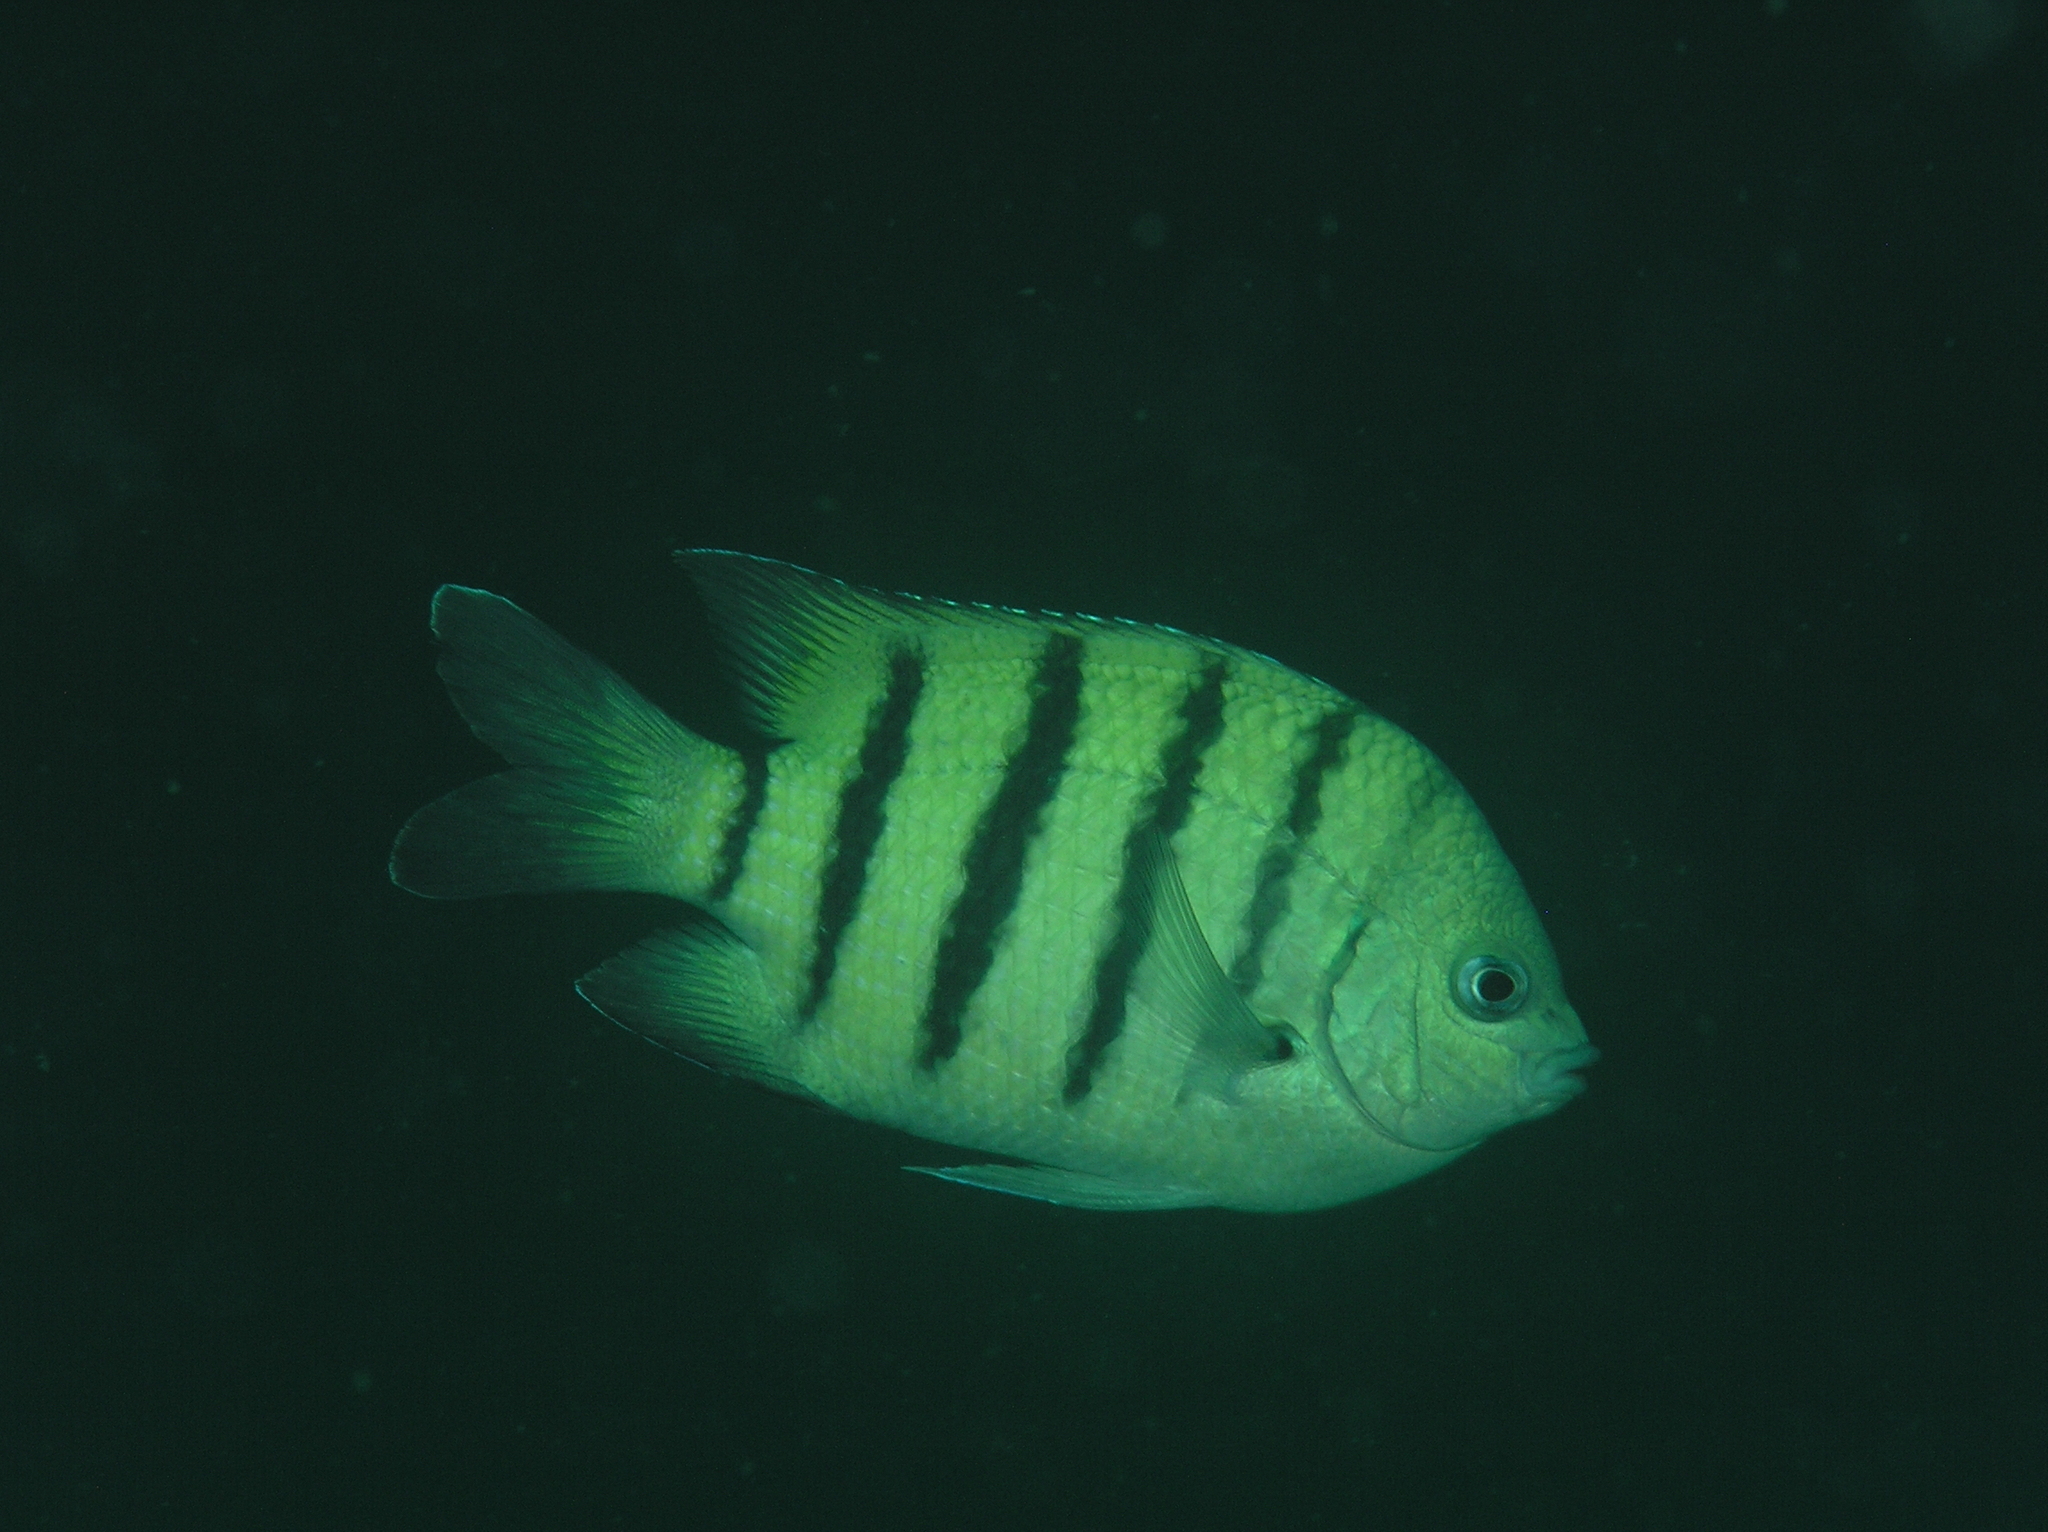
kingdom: Animalia
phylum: Chordata
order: Perciformes
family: Pomacentridae
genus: Abudefduf
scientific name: Abudefduf bengalensis
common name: Bengal sergeant
